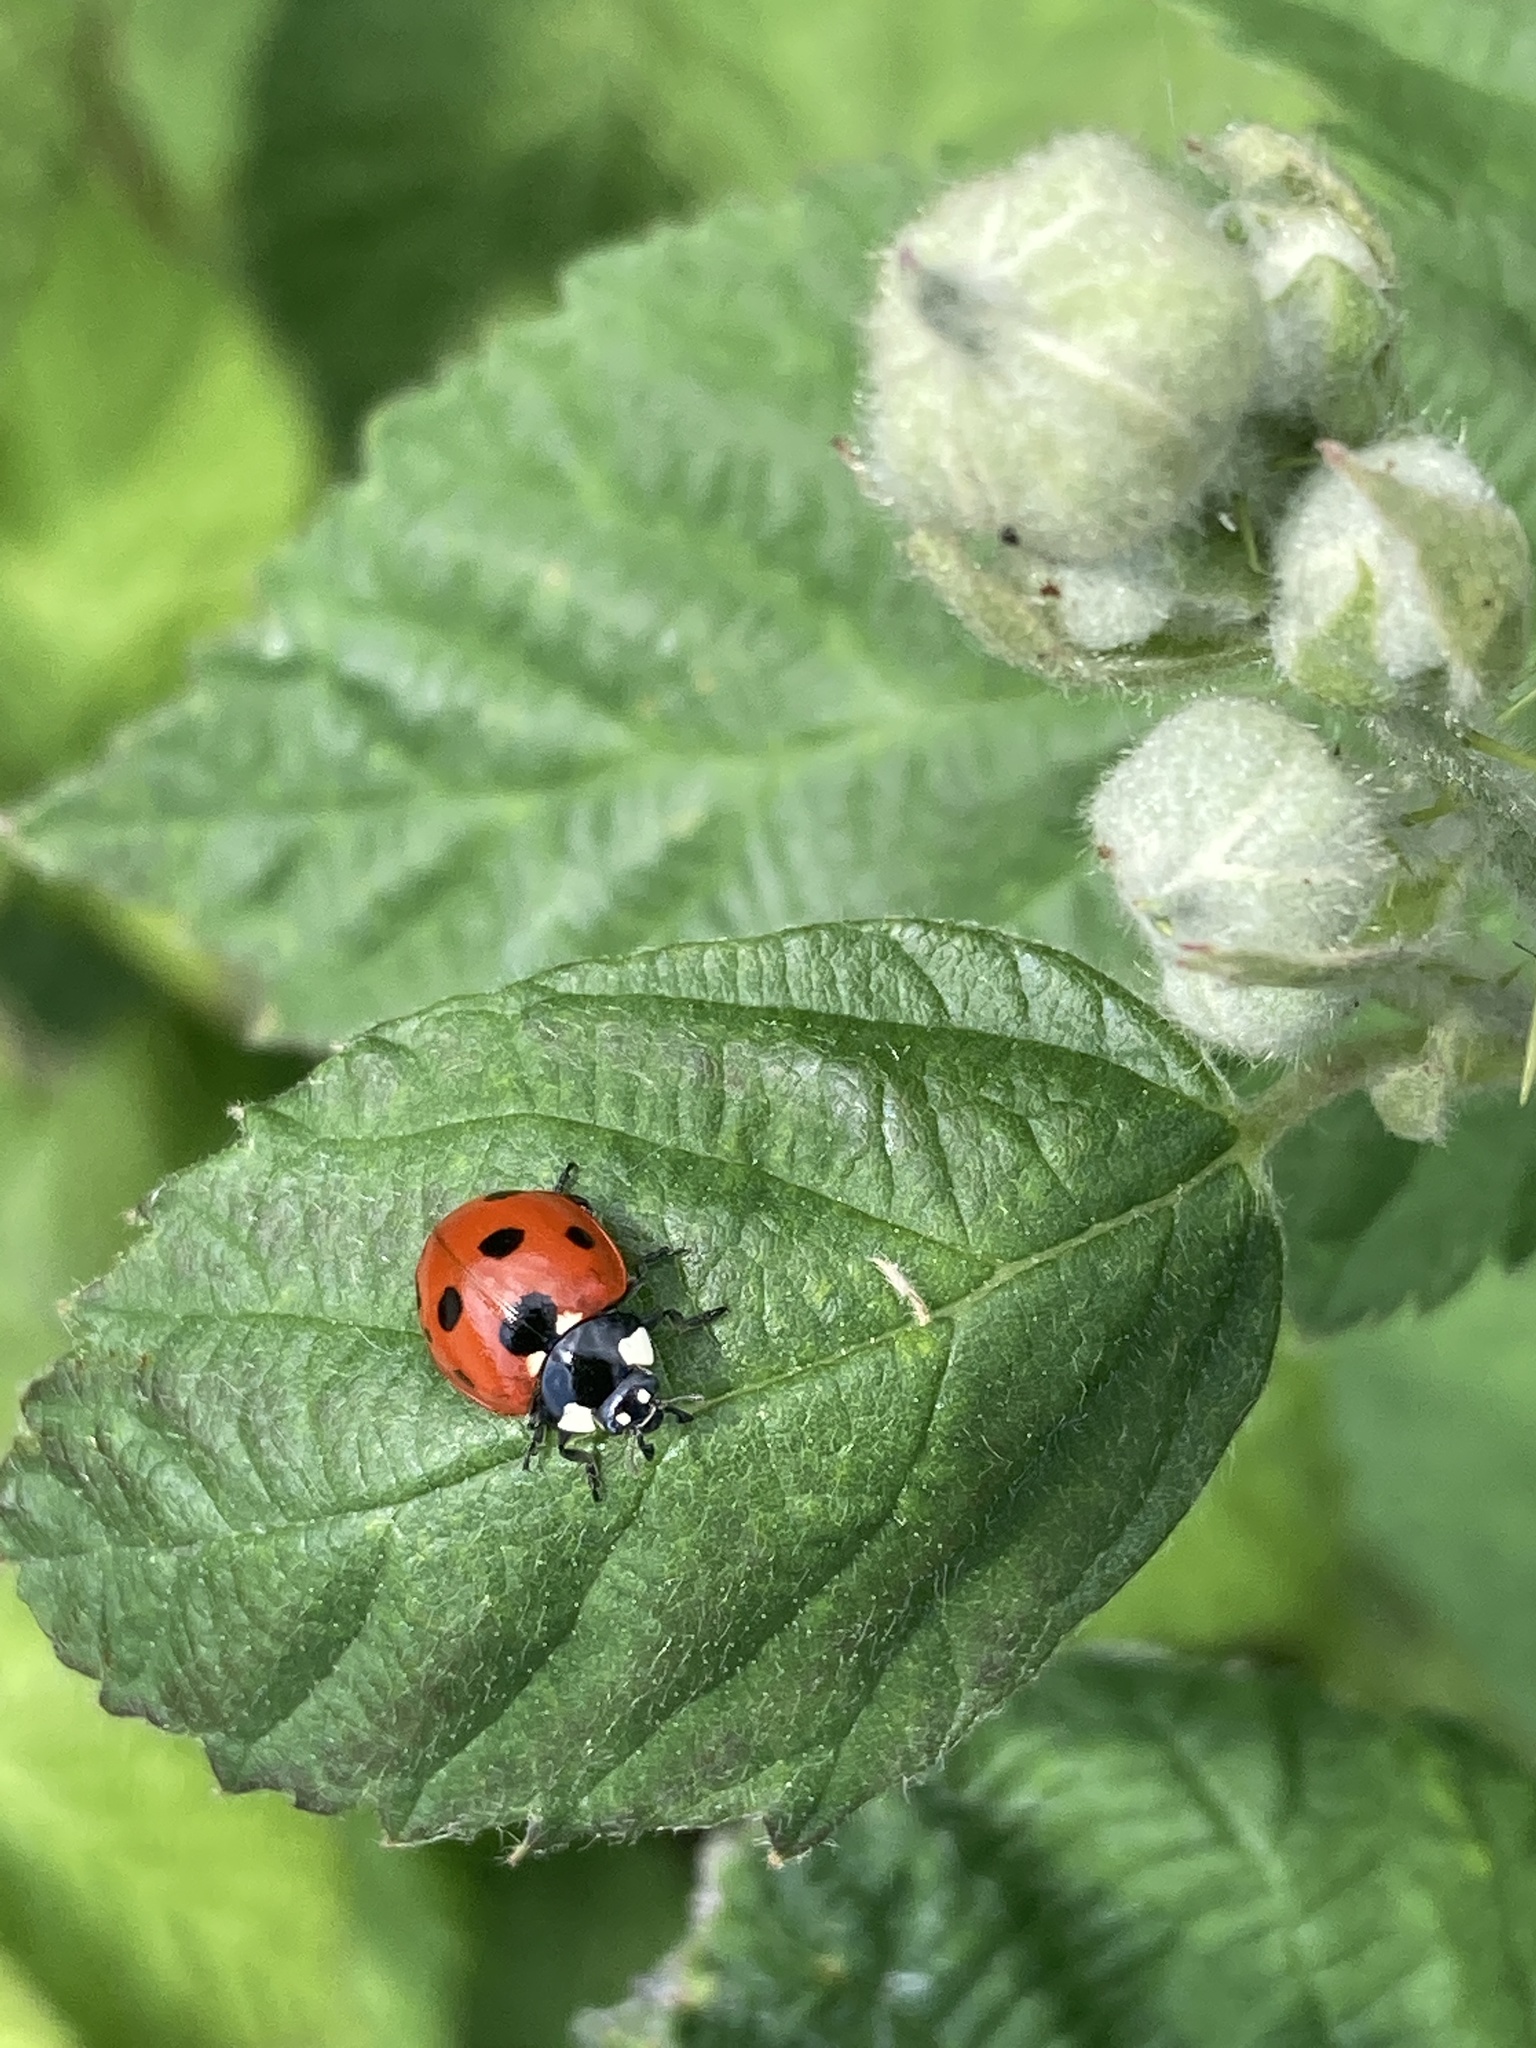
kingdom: Animalia
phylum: Arthropoda
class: Insecta
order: Coleoptera
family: Coccinellidae
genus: Coccinella
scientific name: Coccinella septempunctata
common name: Sevenspotted lady beetle
